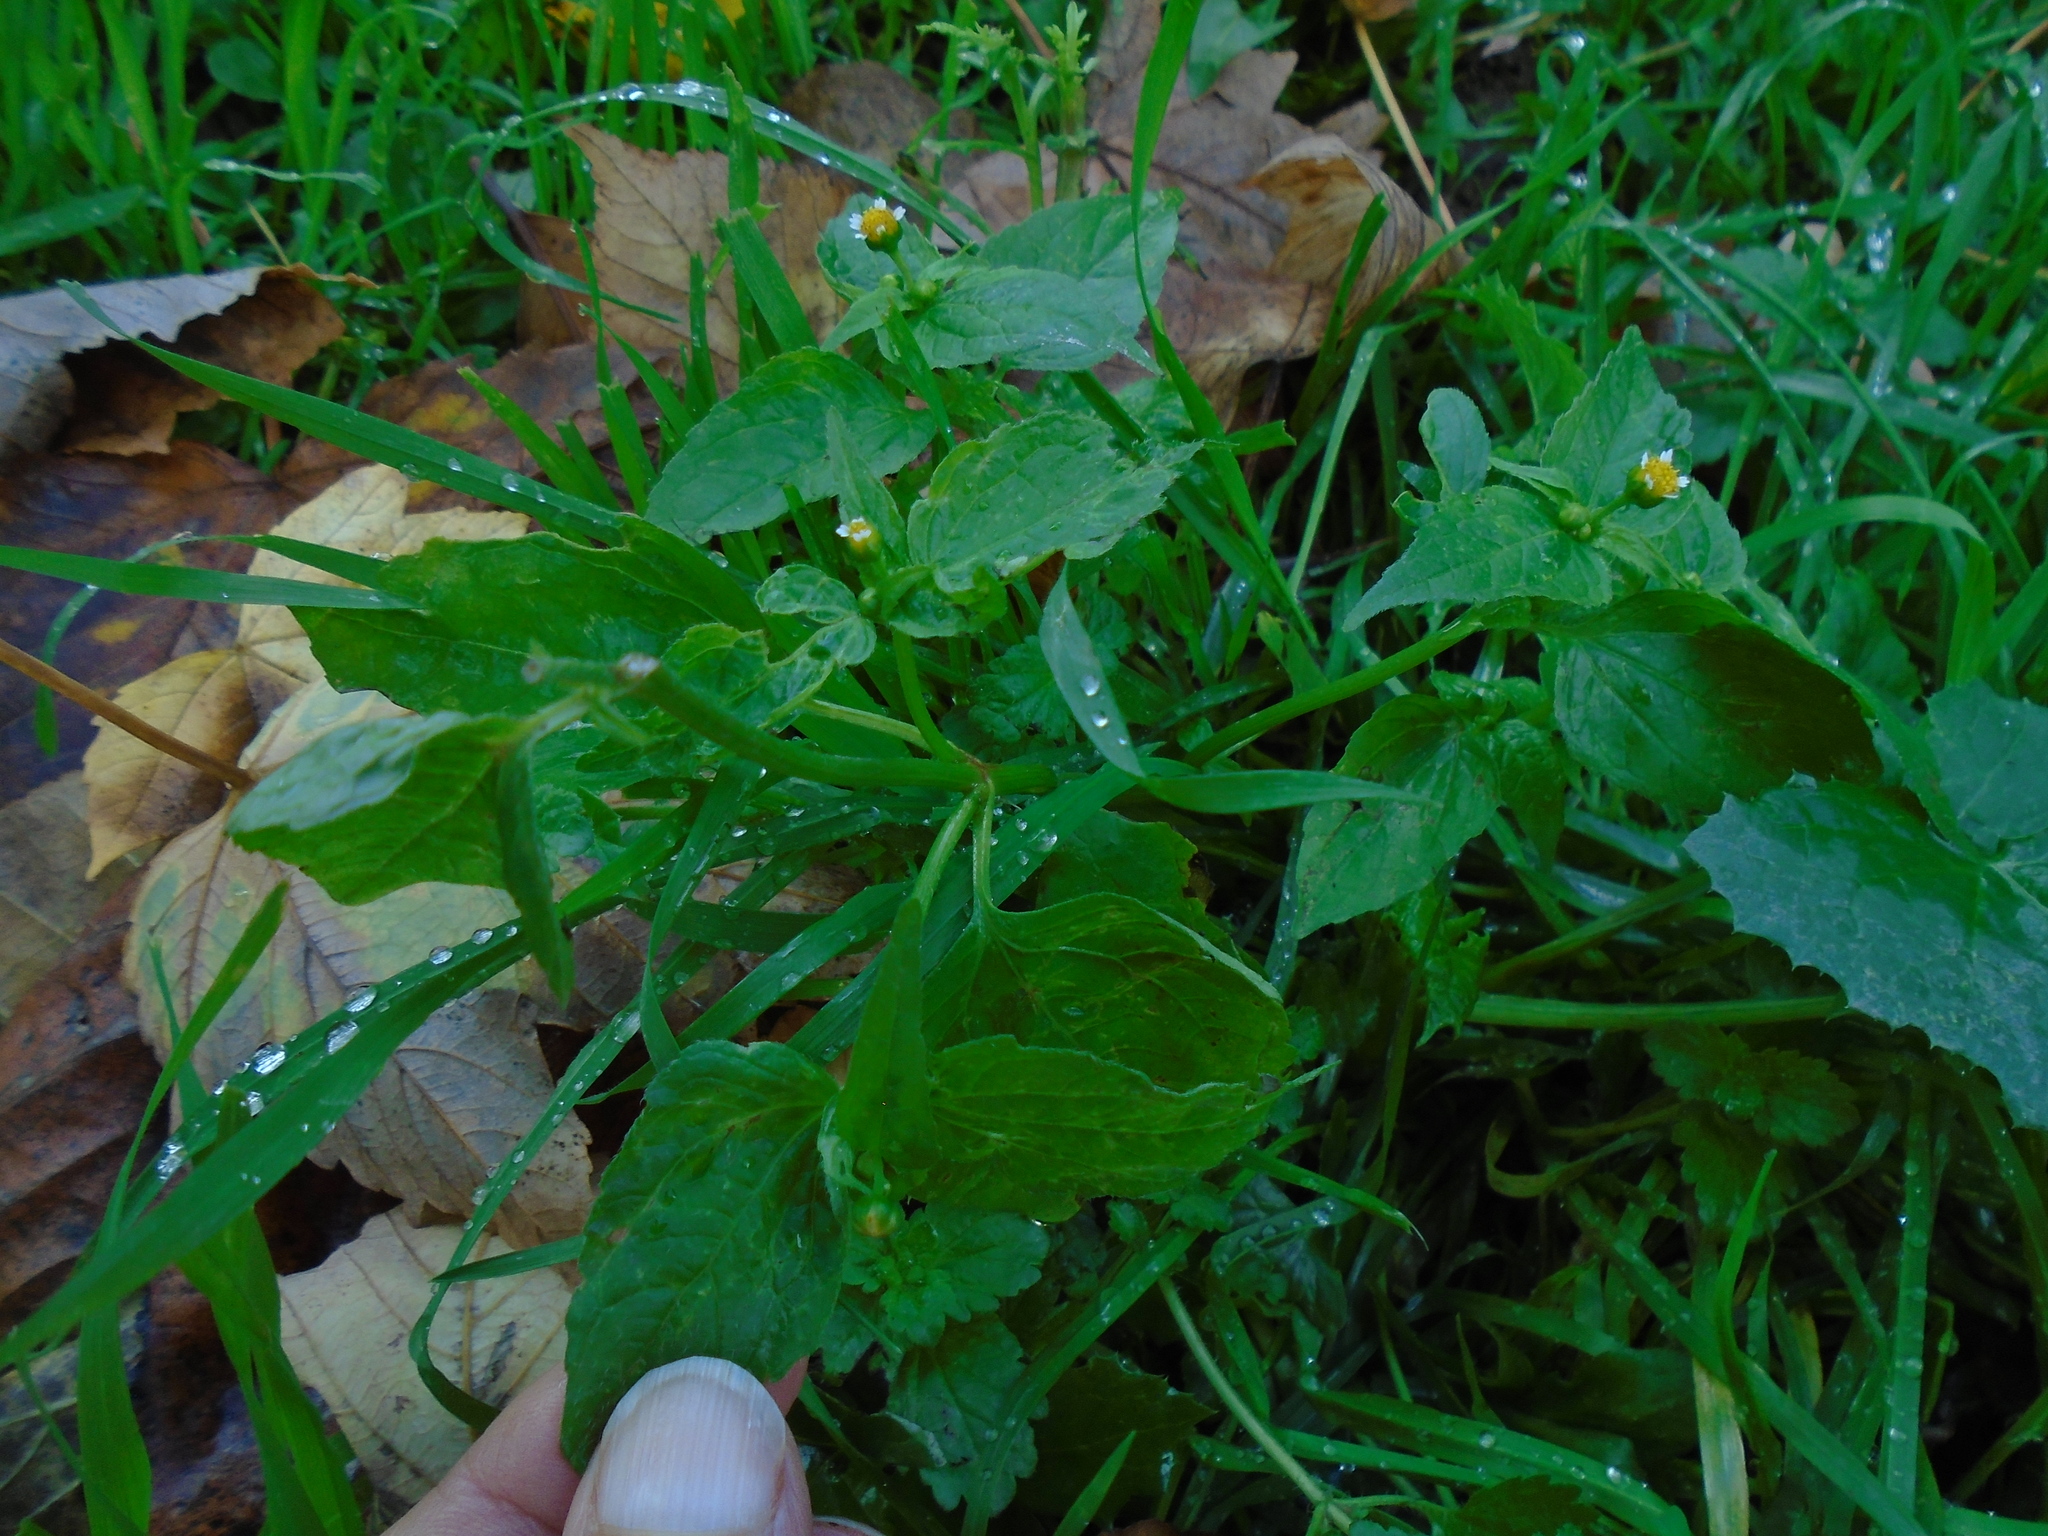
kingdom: Plantae
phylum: Tracheophyta
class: Magnoliopsida
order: Asterales
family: Asteraceae
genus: Galinsoga
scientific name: Galinsoga parviflora
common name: Gallant soldier
